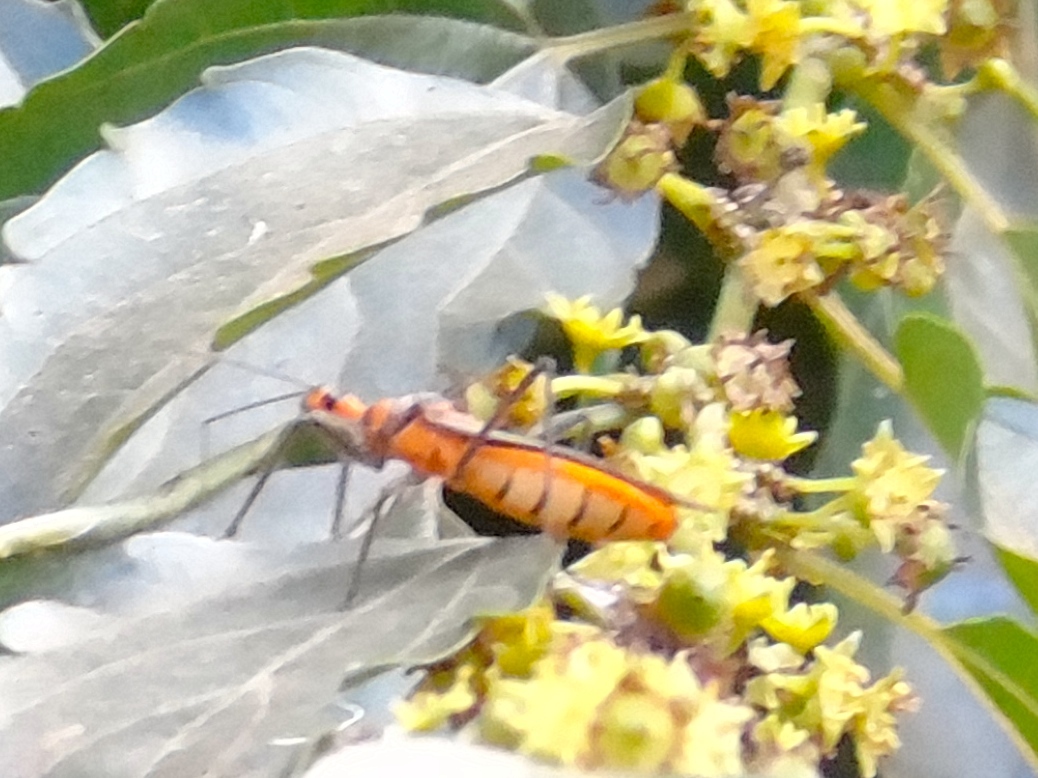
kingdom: Animalia
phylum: Arthropoda
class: Insecta
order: Hemiptera
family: Reduviidae
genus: Repipta
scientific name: Repipta
